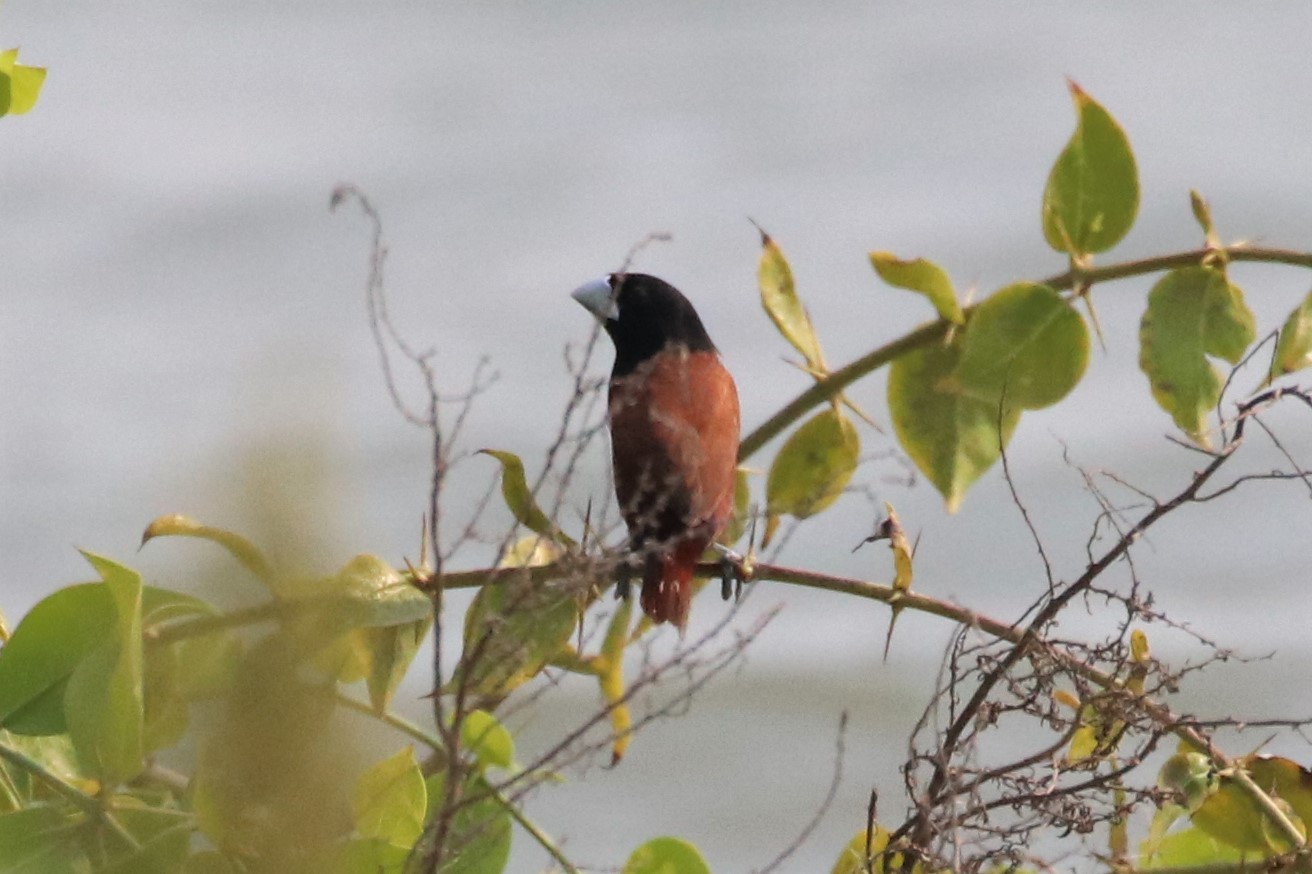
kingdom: Animalia
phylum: Chordata
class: Aves
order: Passeriformes
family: Estrildidae
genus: Lonchura
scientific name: Lonchura atricapilla
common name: Chestnut munia
